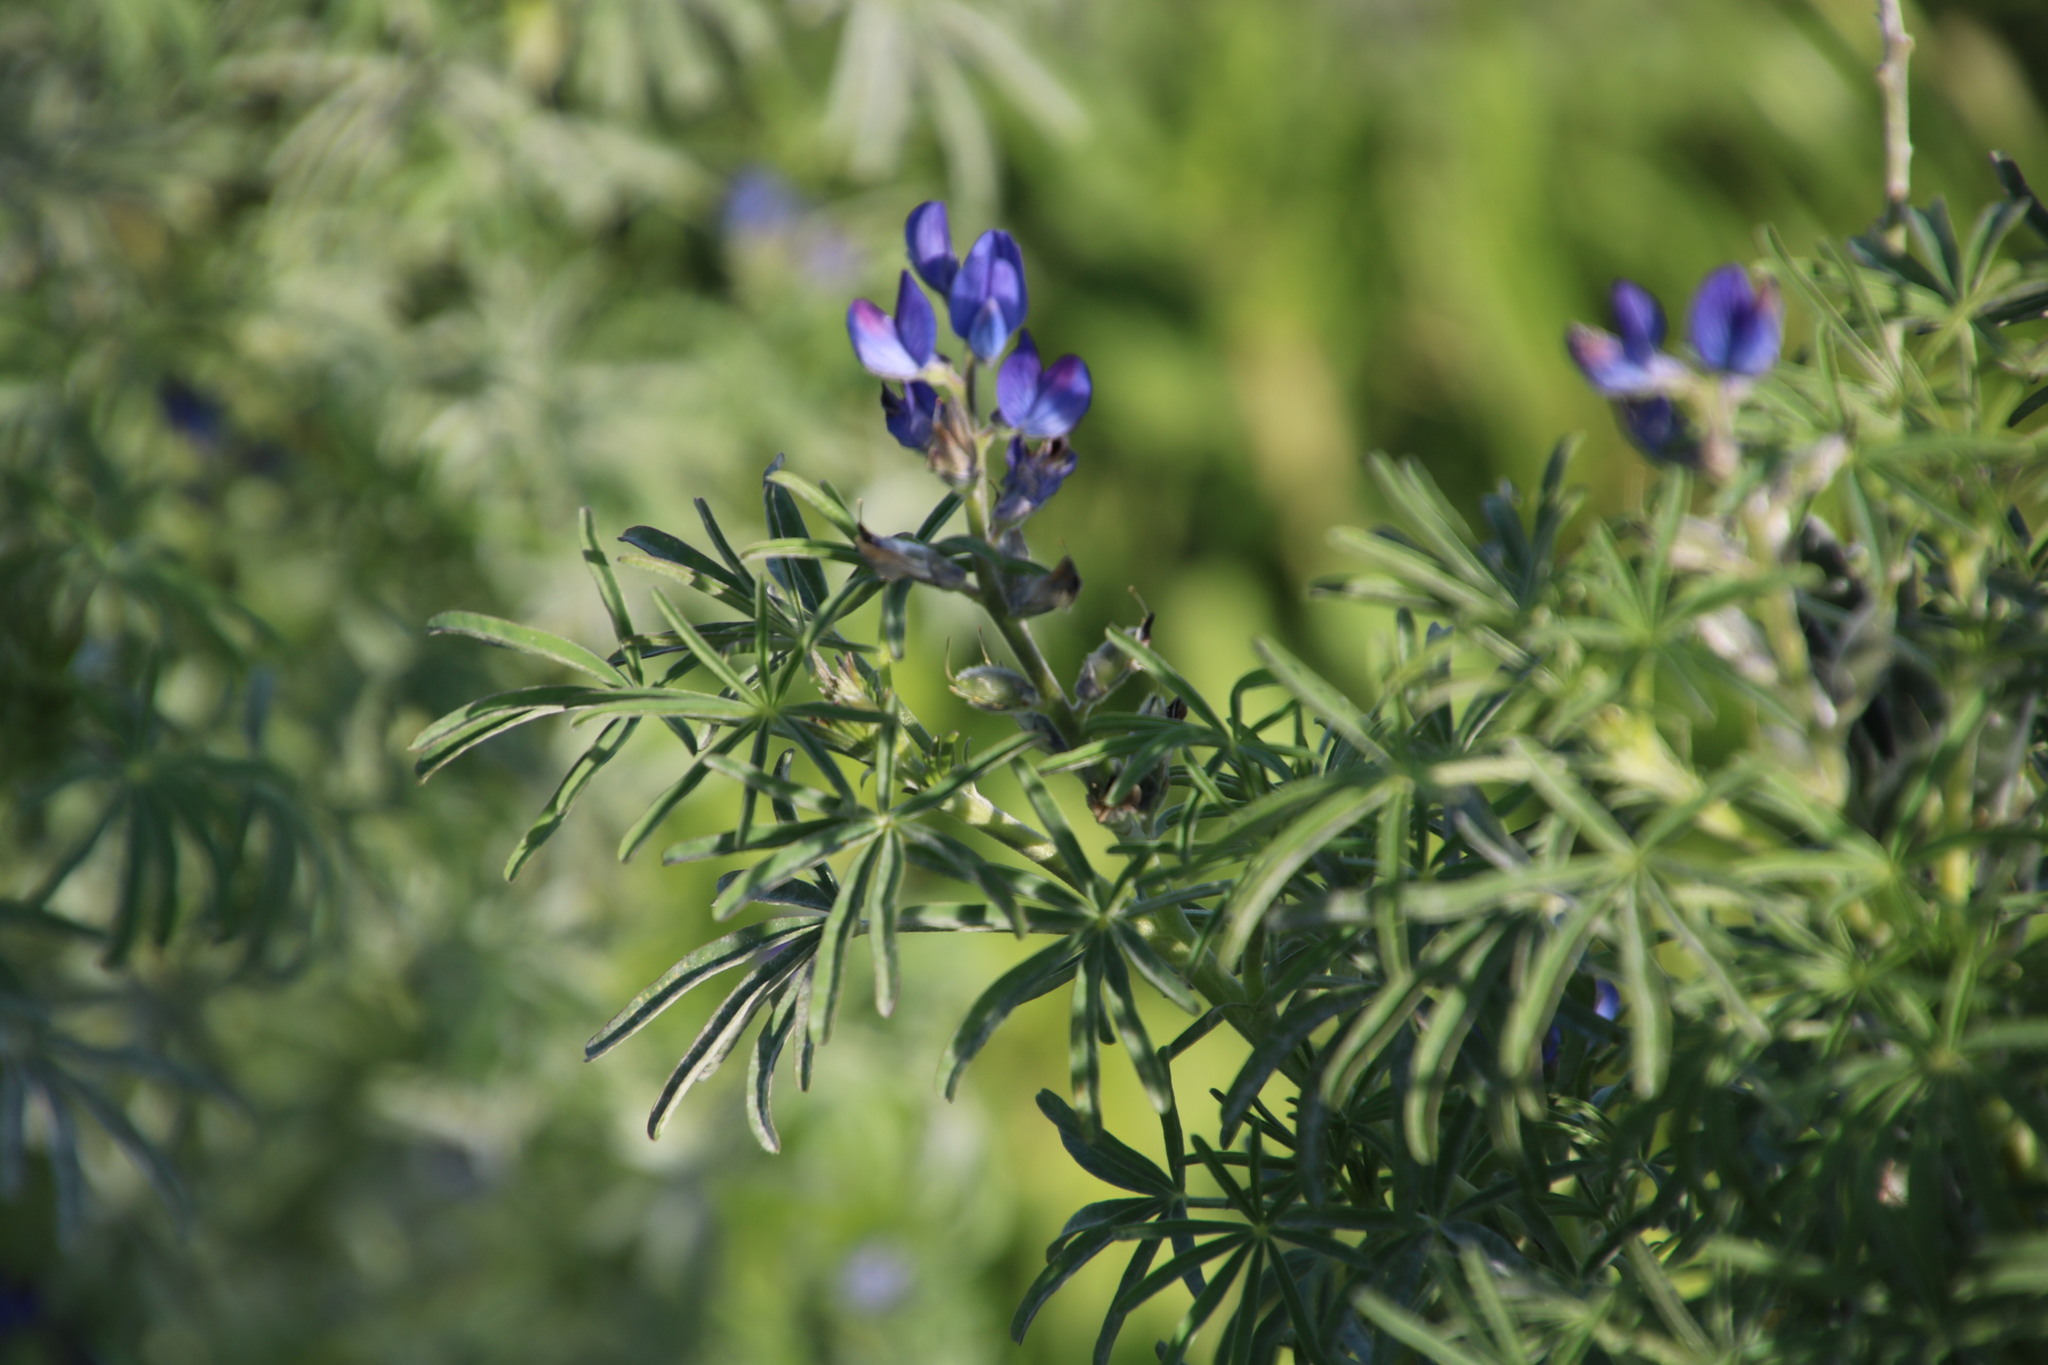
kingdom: Plantae
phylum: Tracheophyta
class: Magnoliopsida
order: Fabales
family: Fabaceae
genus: Lupinus
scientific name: Lupinus angustifolius
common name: Narrow-leaved lupin
